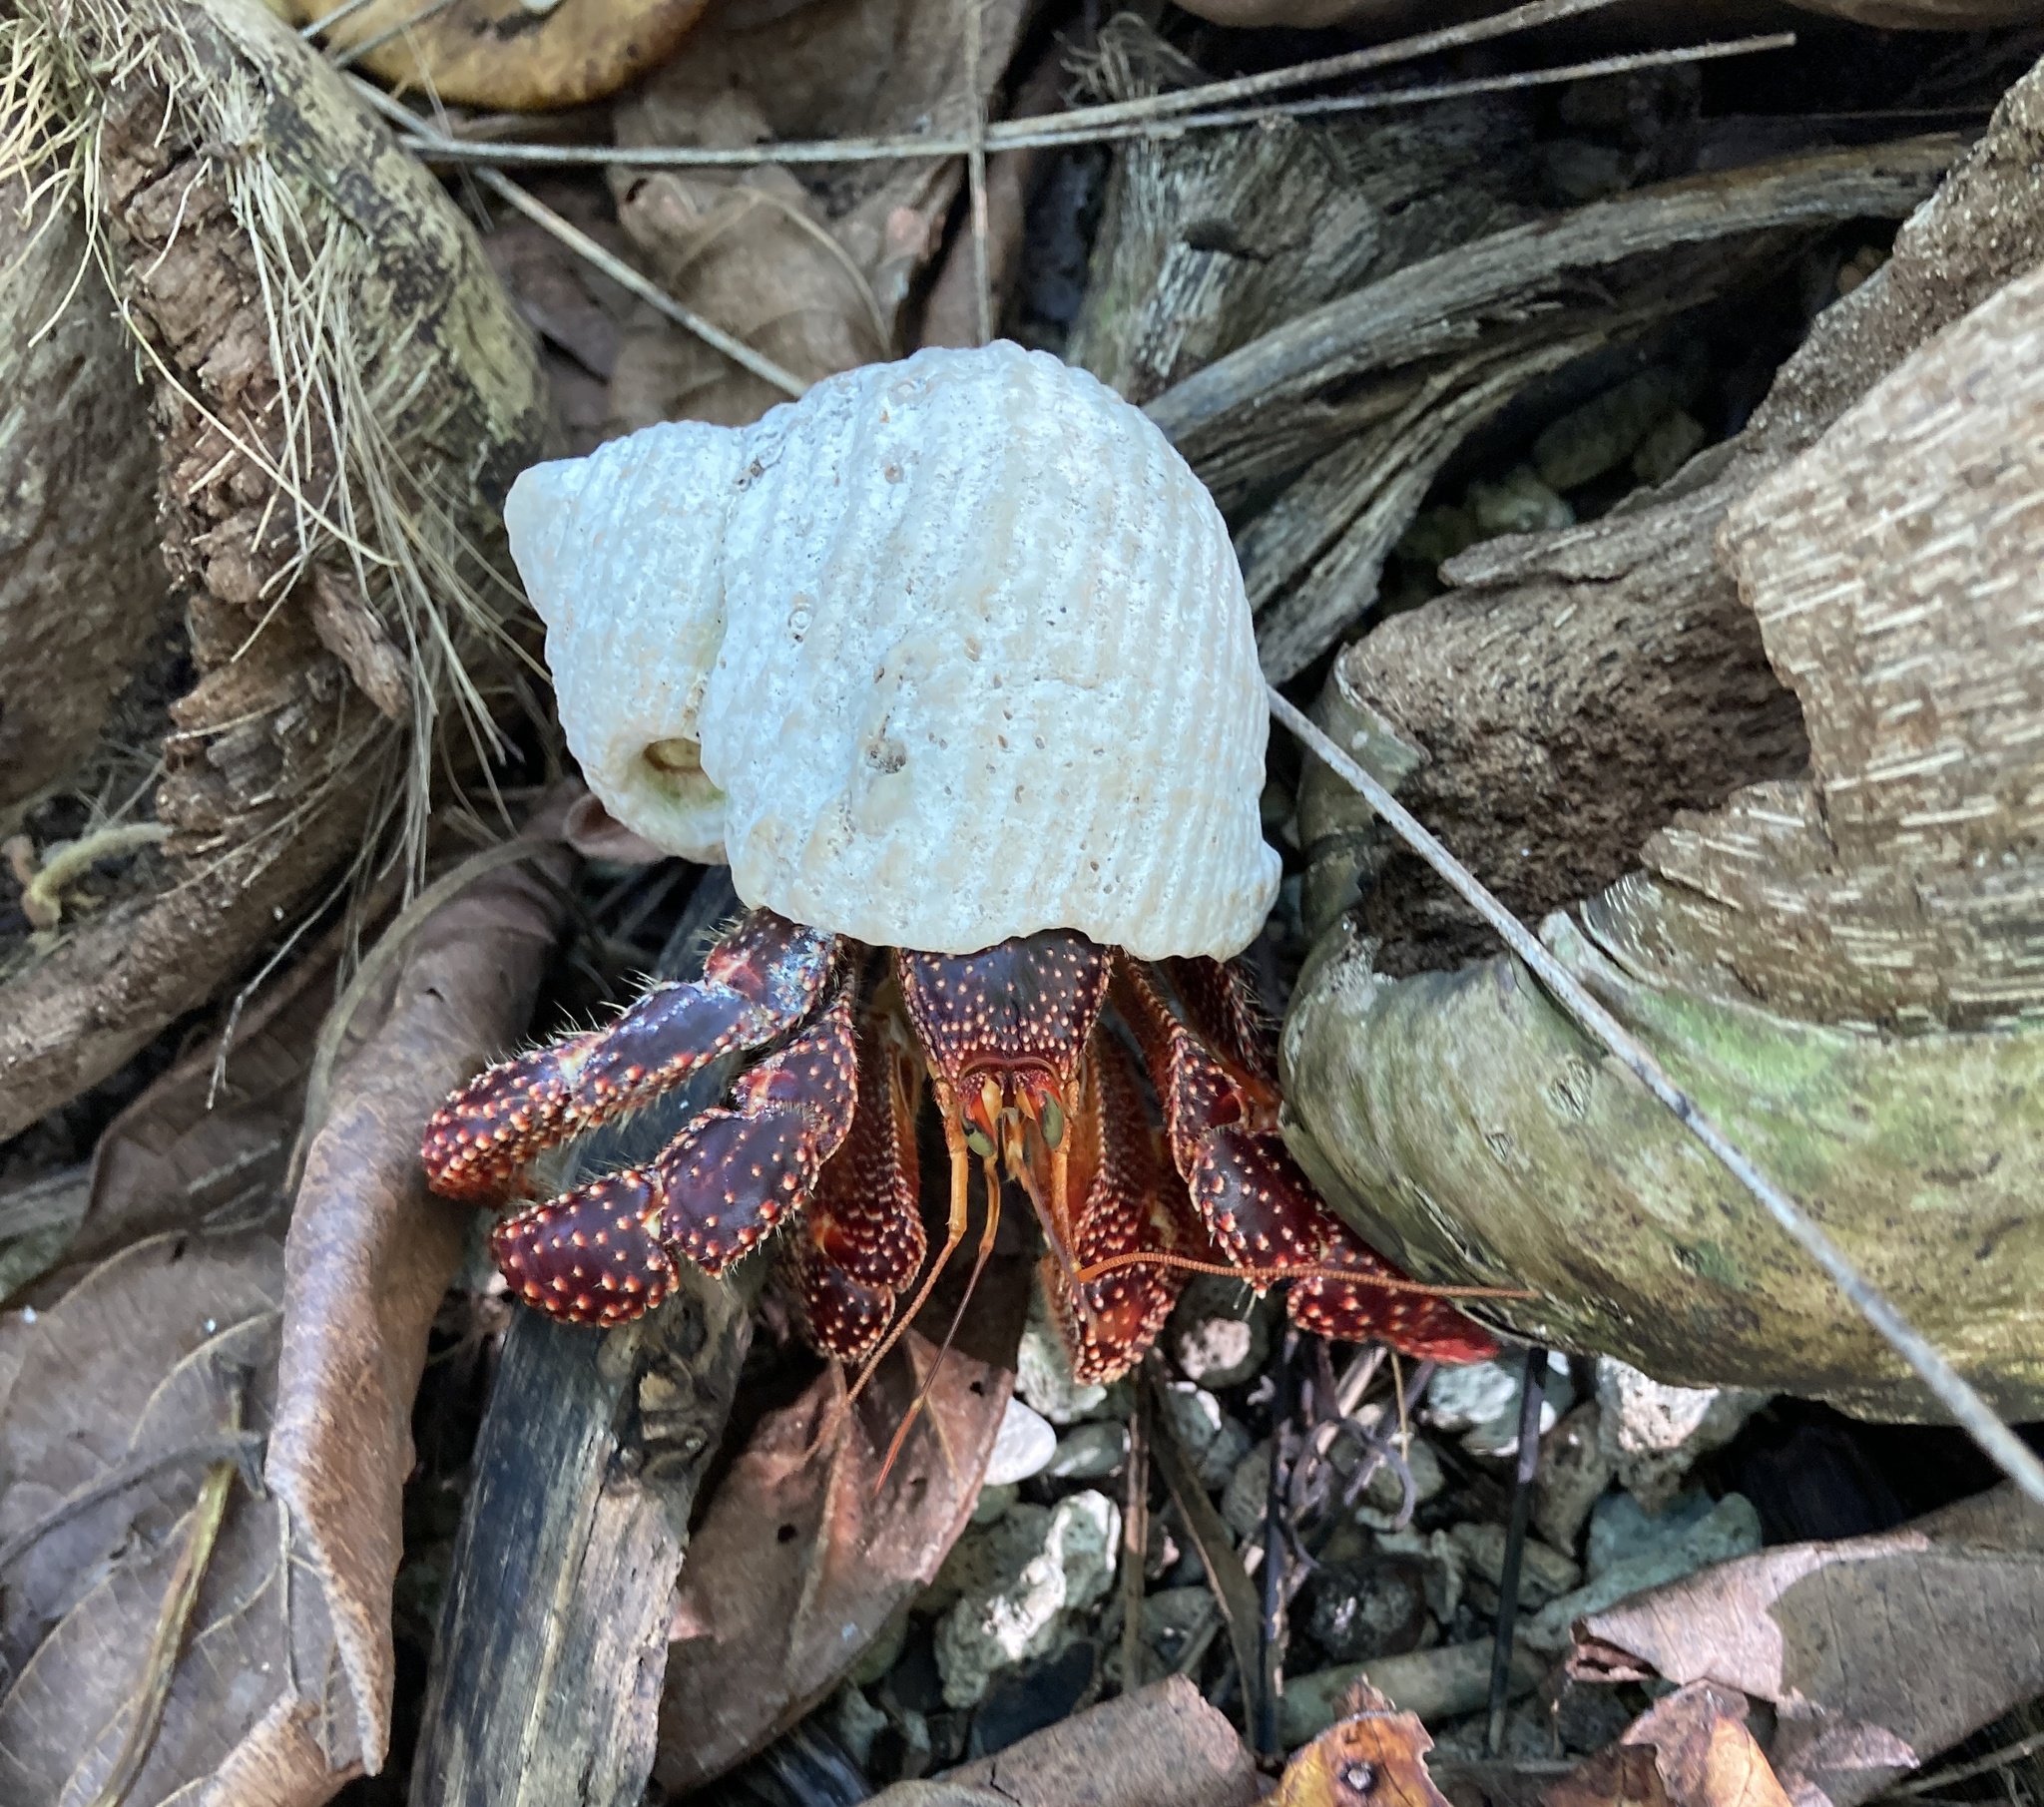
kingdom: Animalia
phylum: Arthropoda
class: Malacostraca
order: Decapoda
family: Coenobitidae
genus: Coenobita
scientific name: Coenobita perlatus
